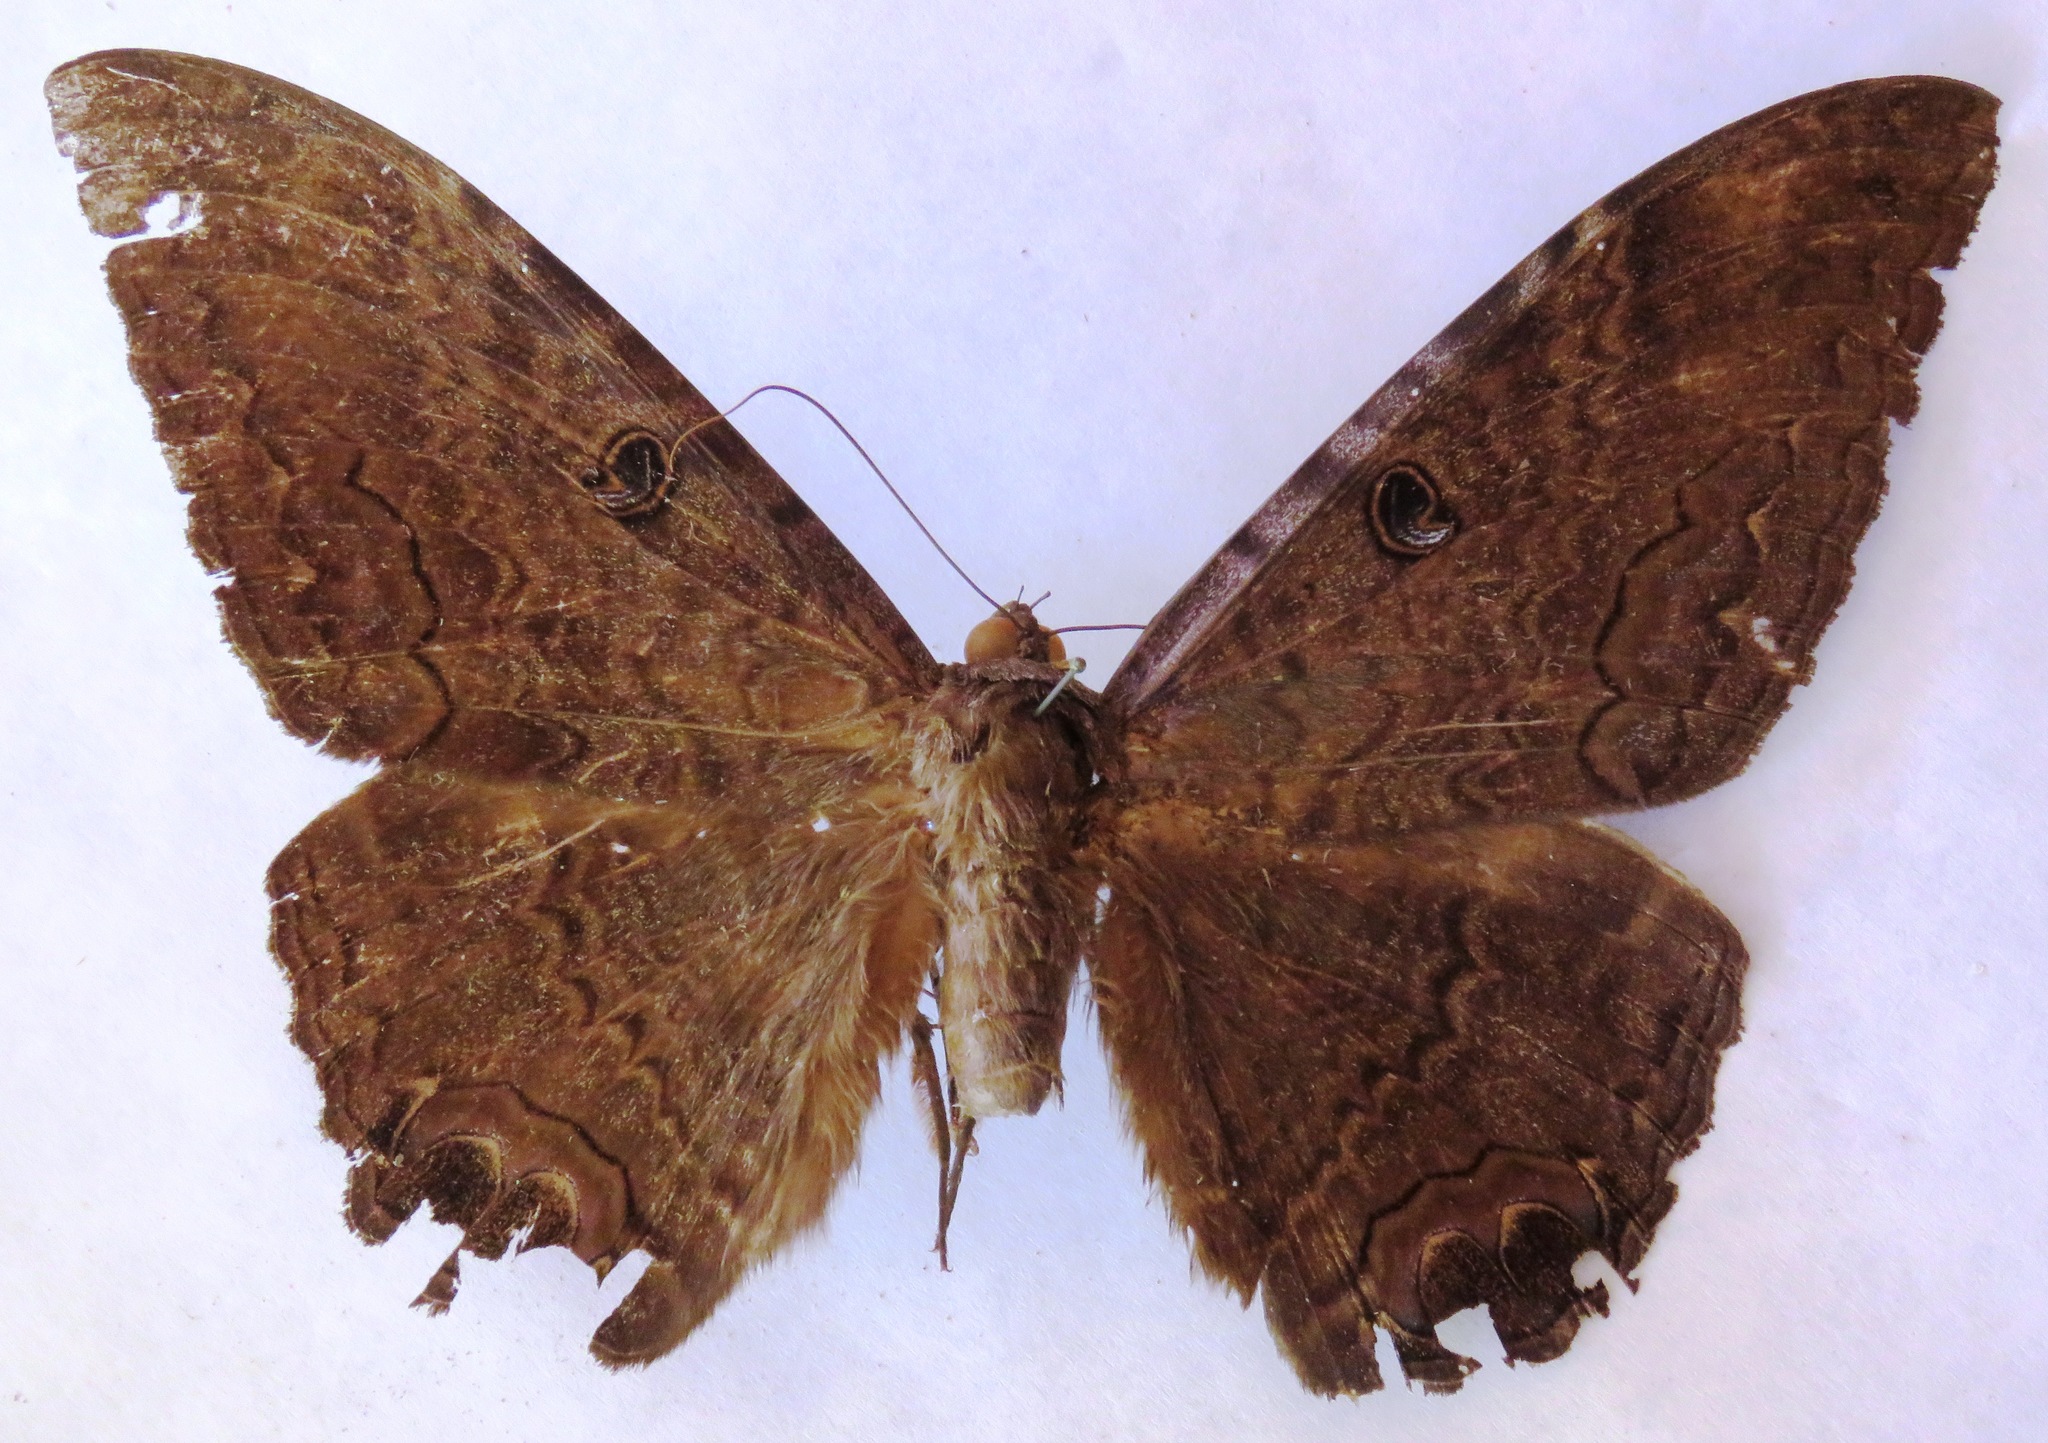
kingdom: Animalia
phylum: Arthropoda
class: Insecta
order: Lepidoptera
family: Erebidae
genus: Ascalapha
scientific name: Ascalapha odorata
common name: Black witch
